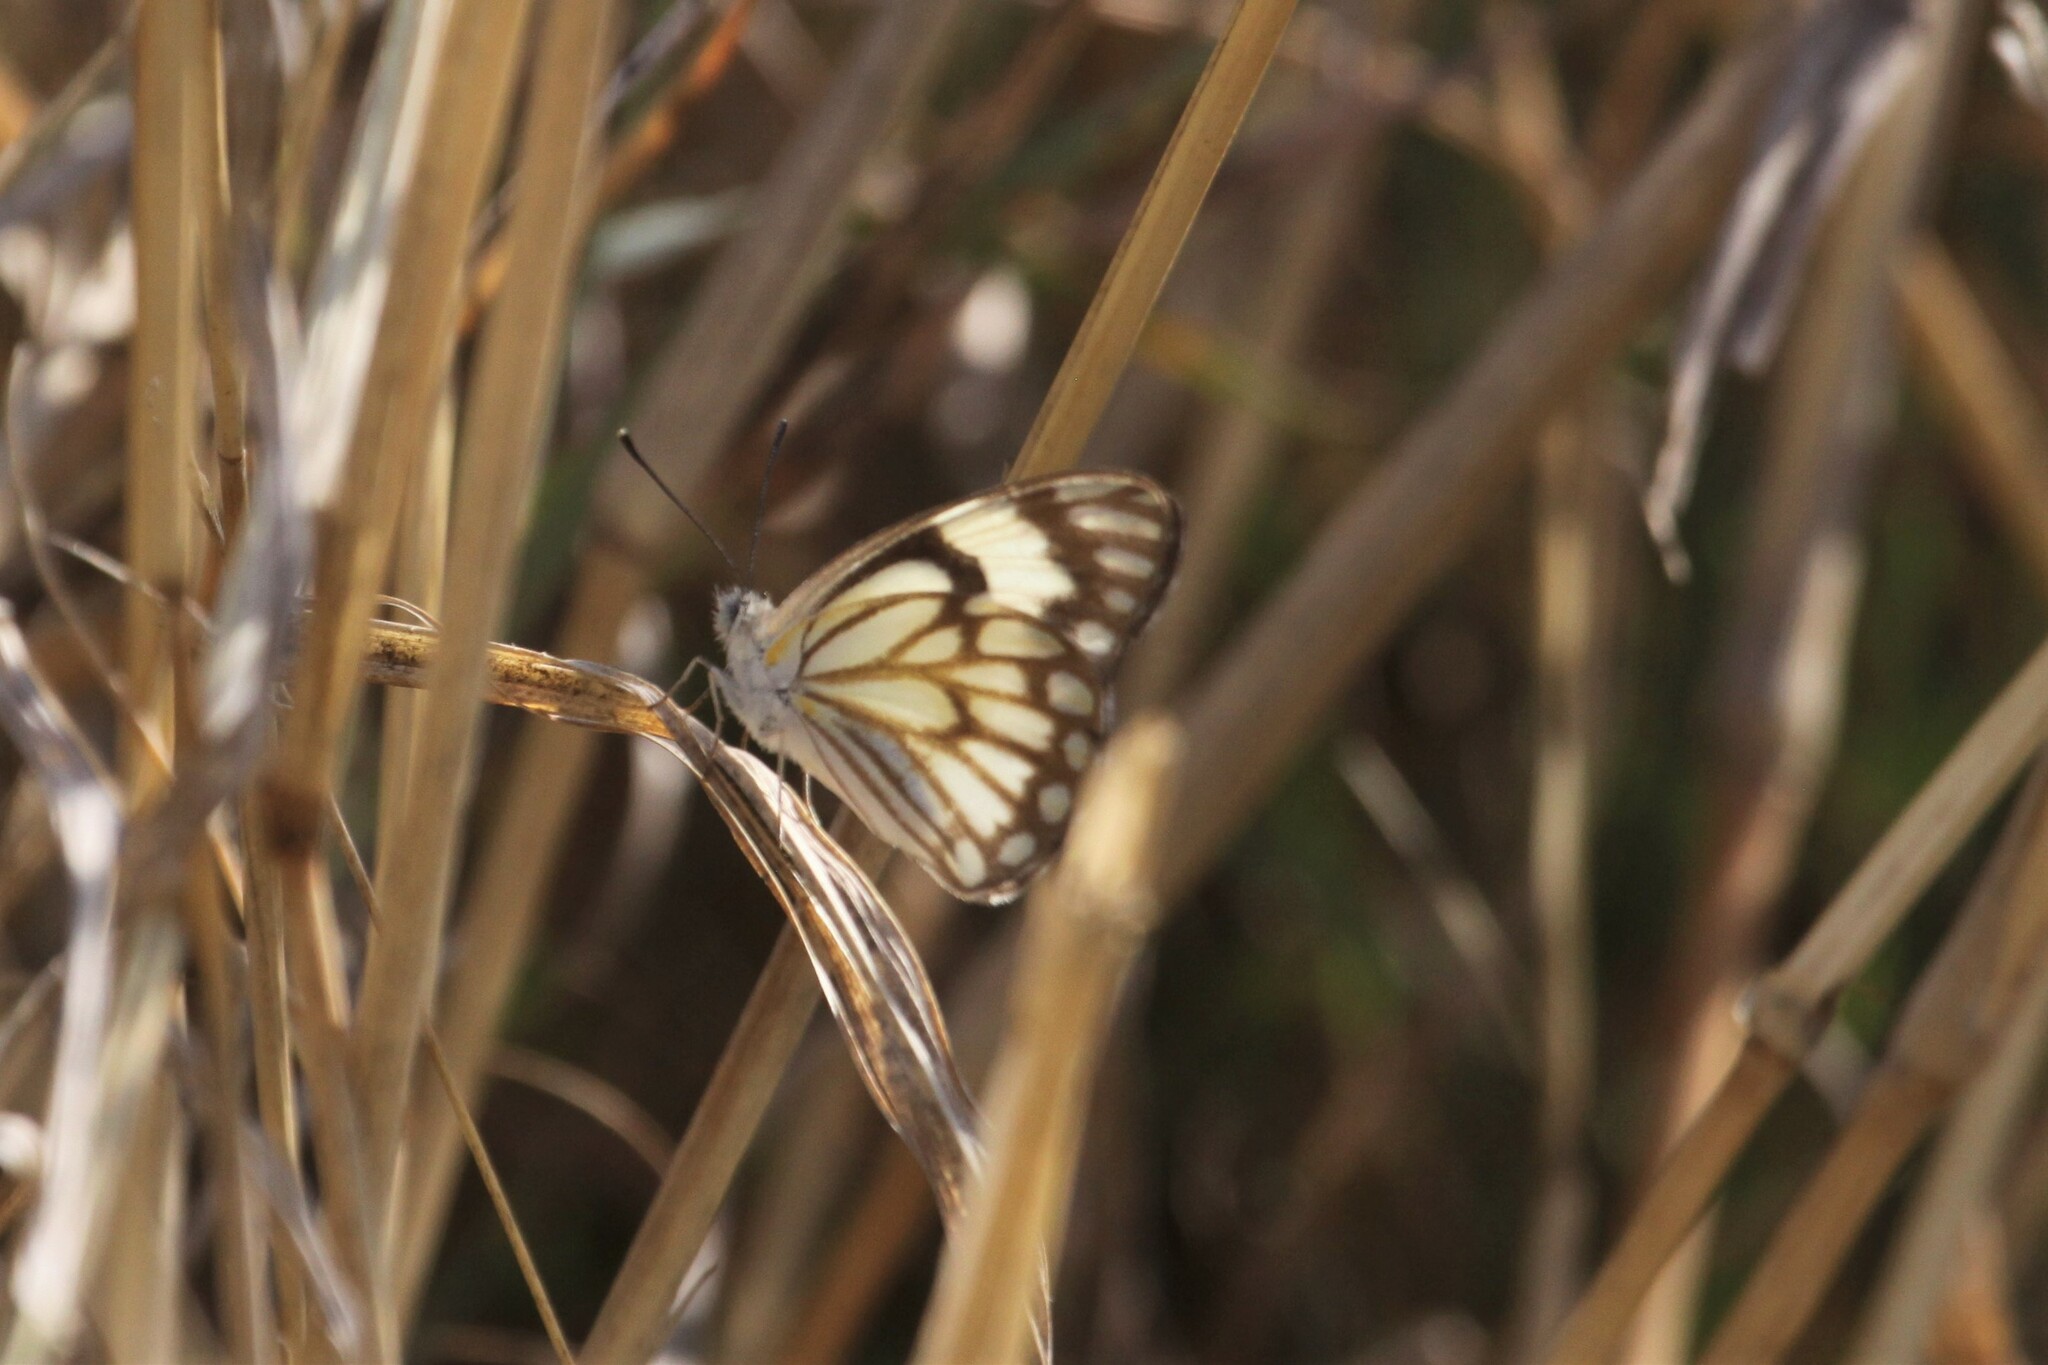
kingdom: Animalia
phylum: Arthropoda
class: Insecta
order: Lepidoptera
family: Pieridae
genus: Belenois
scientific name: Belenois aurota
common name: Brown-veined white
